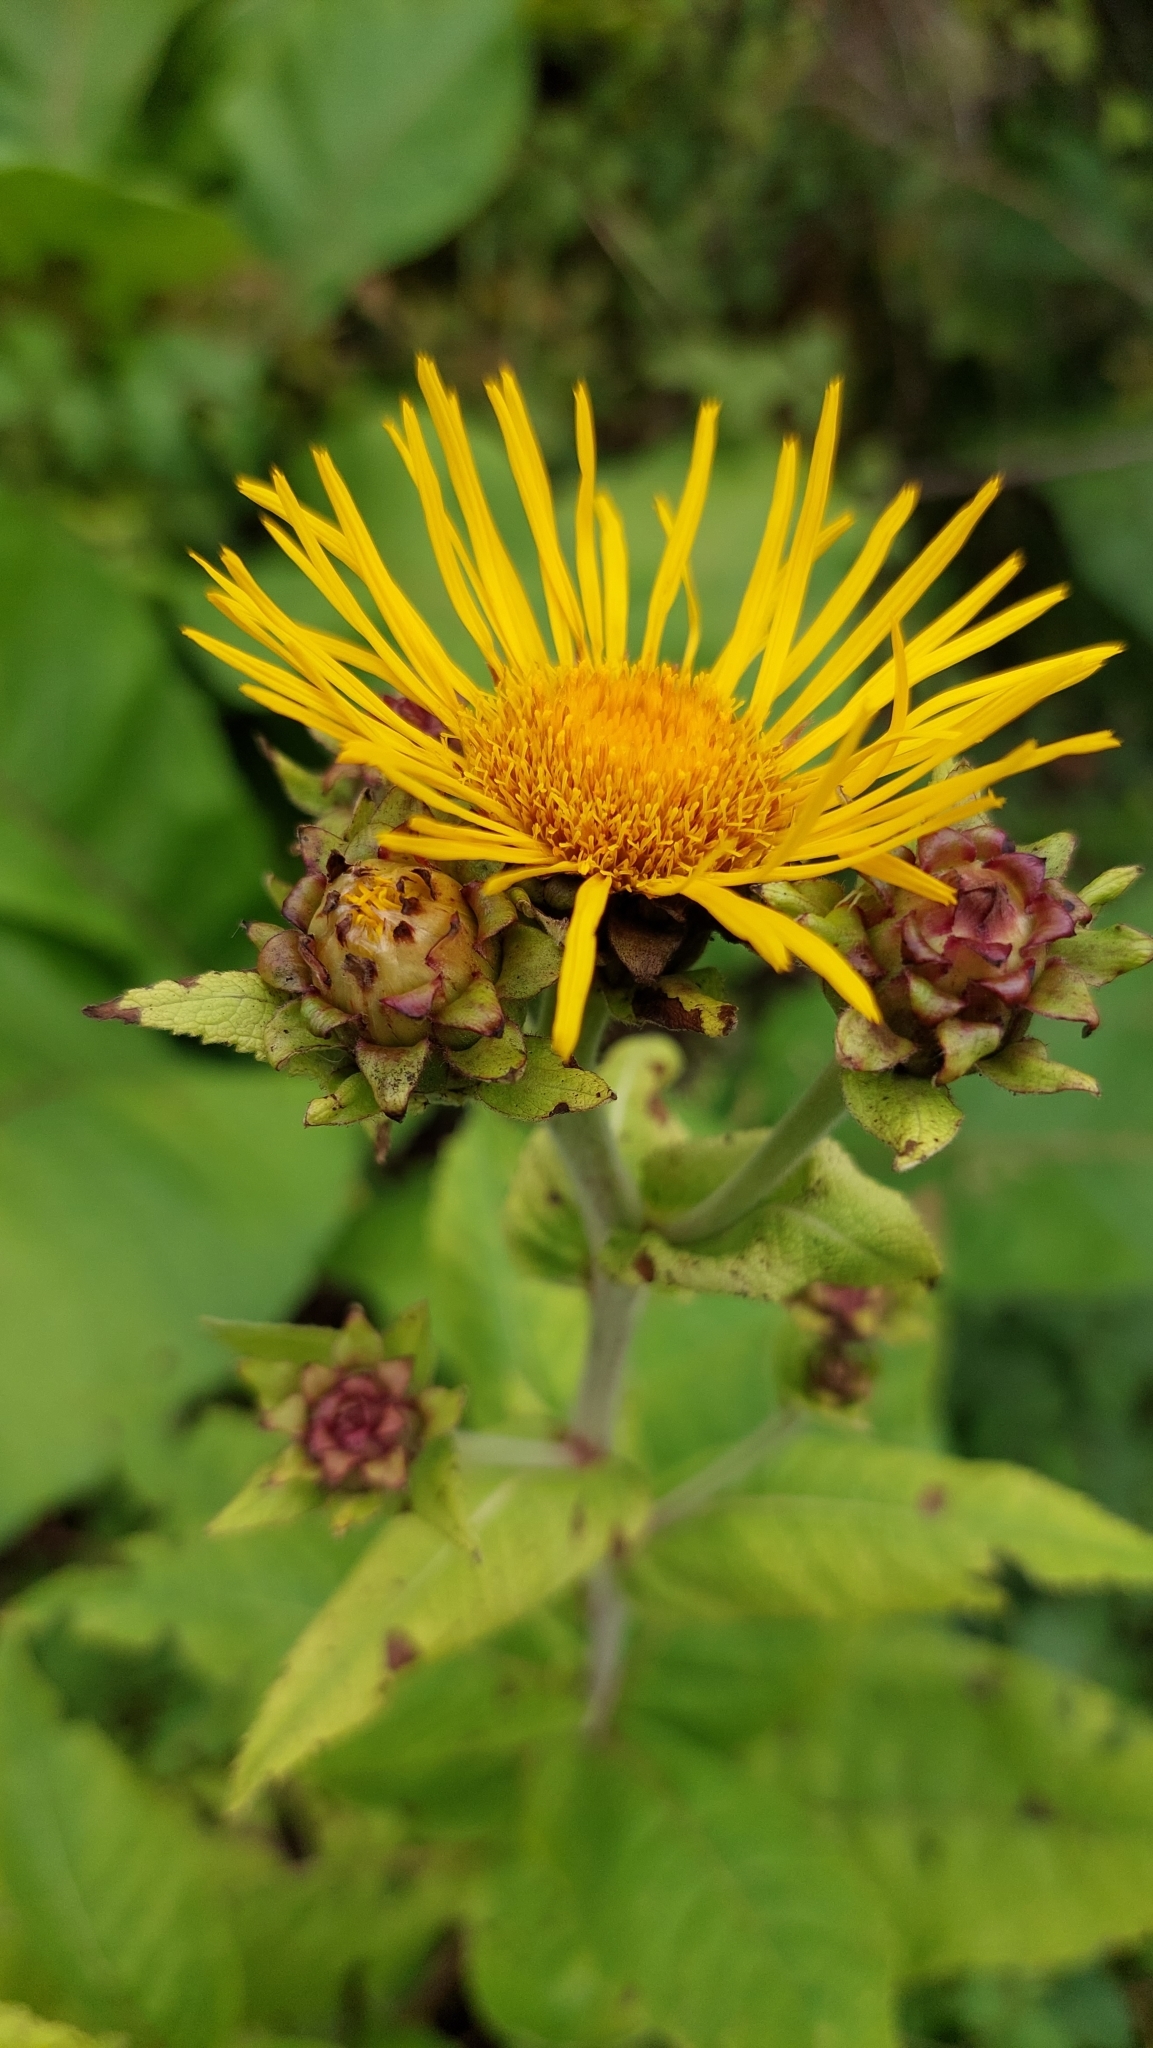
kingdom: Plantae
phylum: Tracheophyta
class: Magnoliopsida
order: Asterales
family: Asteraceae
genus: Inula
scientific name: Inula helenium
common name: Elecampane
